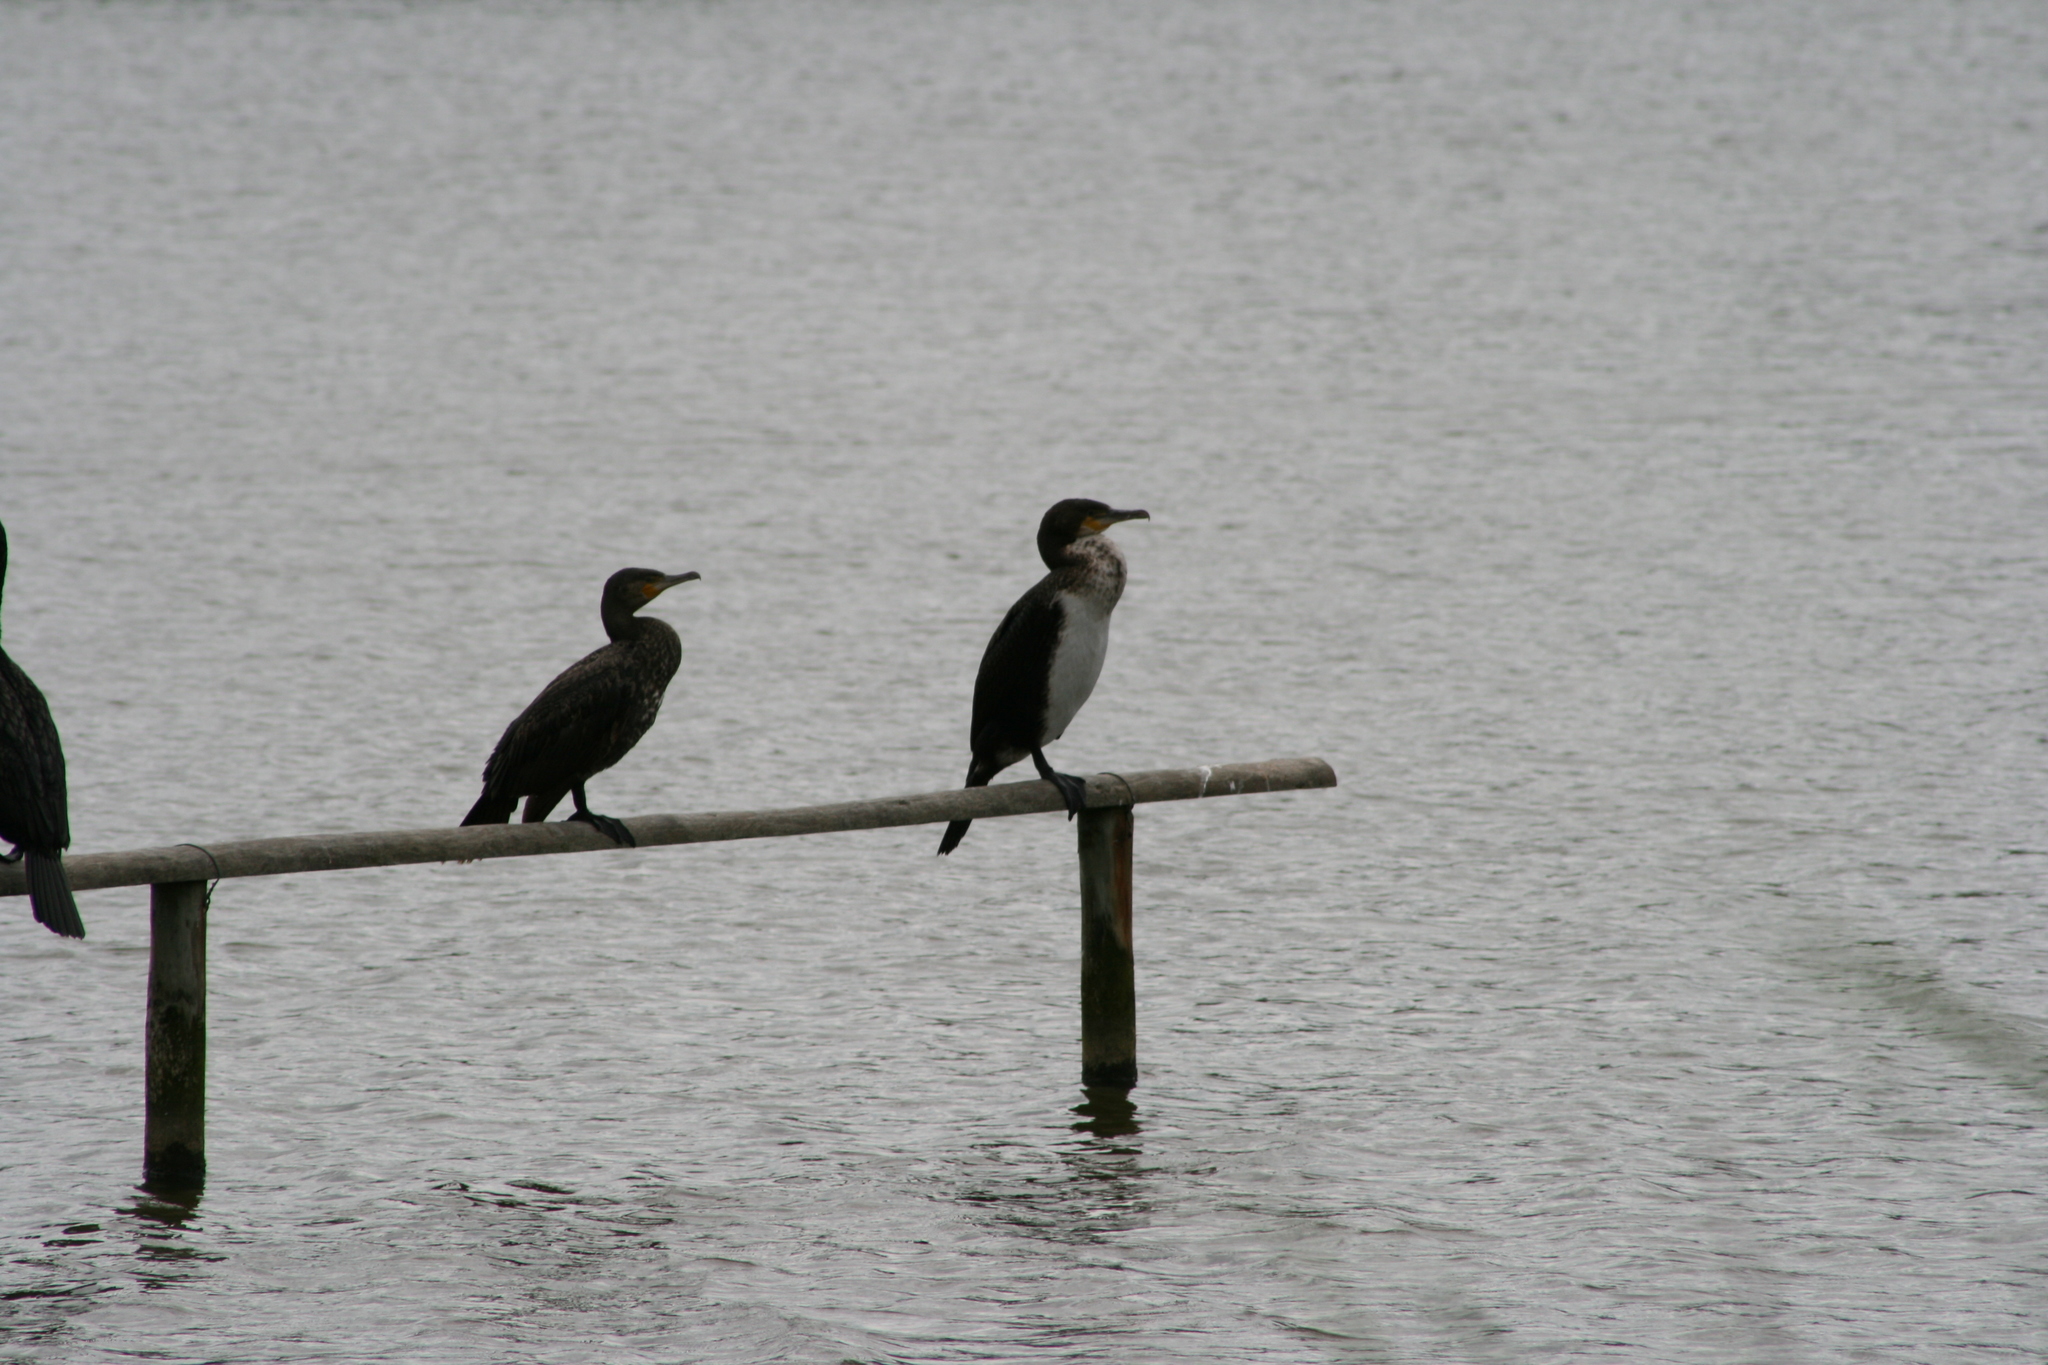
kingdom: Animalia
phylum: Chordata
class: Aves
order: Suliformes
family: Phalacrocoracidae
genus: Phalacrocorax
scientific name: Phalacrocorax carbo
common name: Great cormorant
